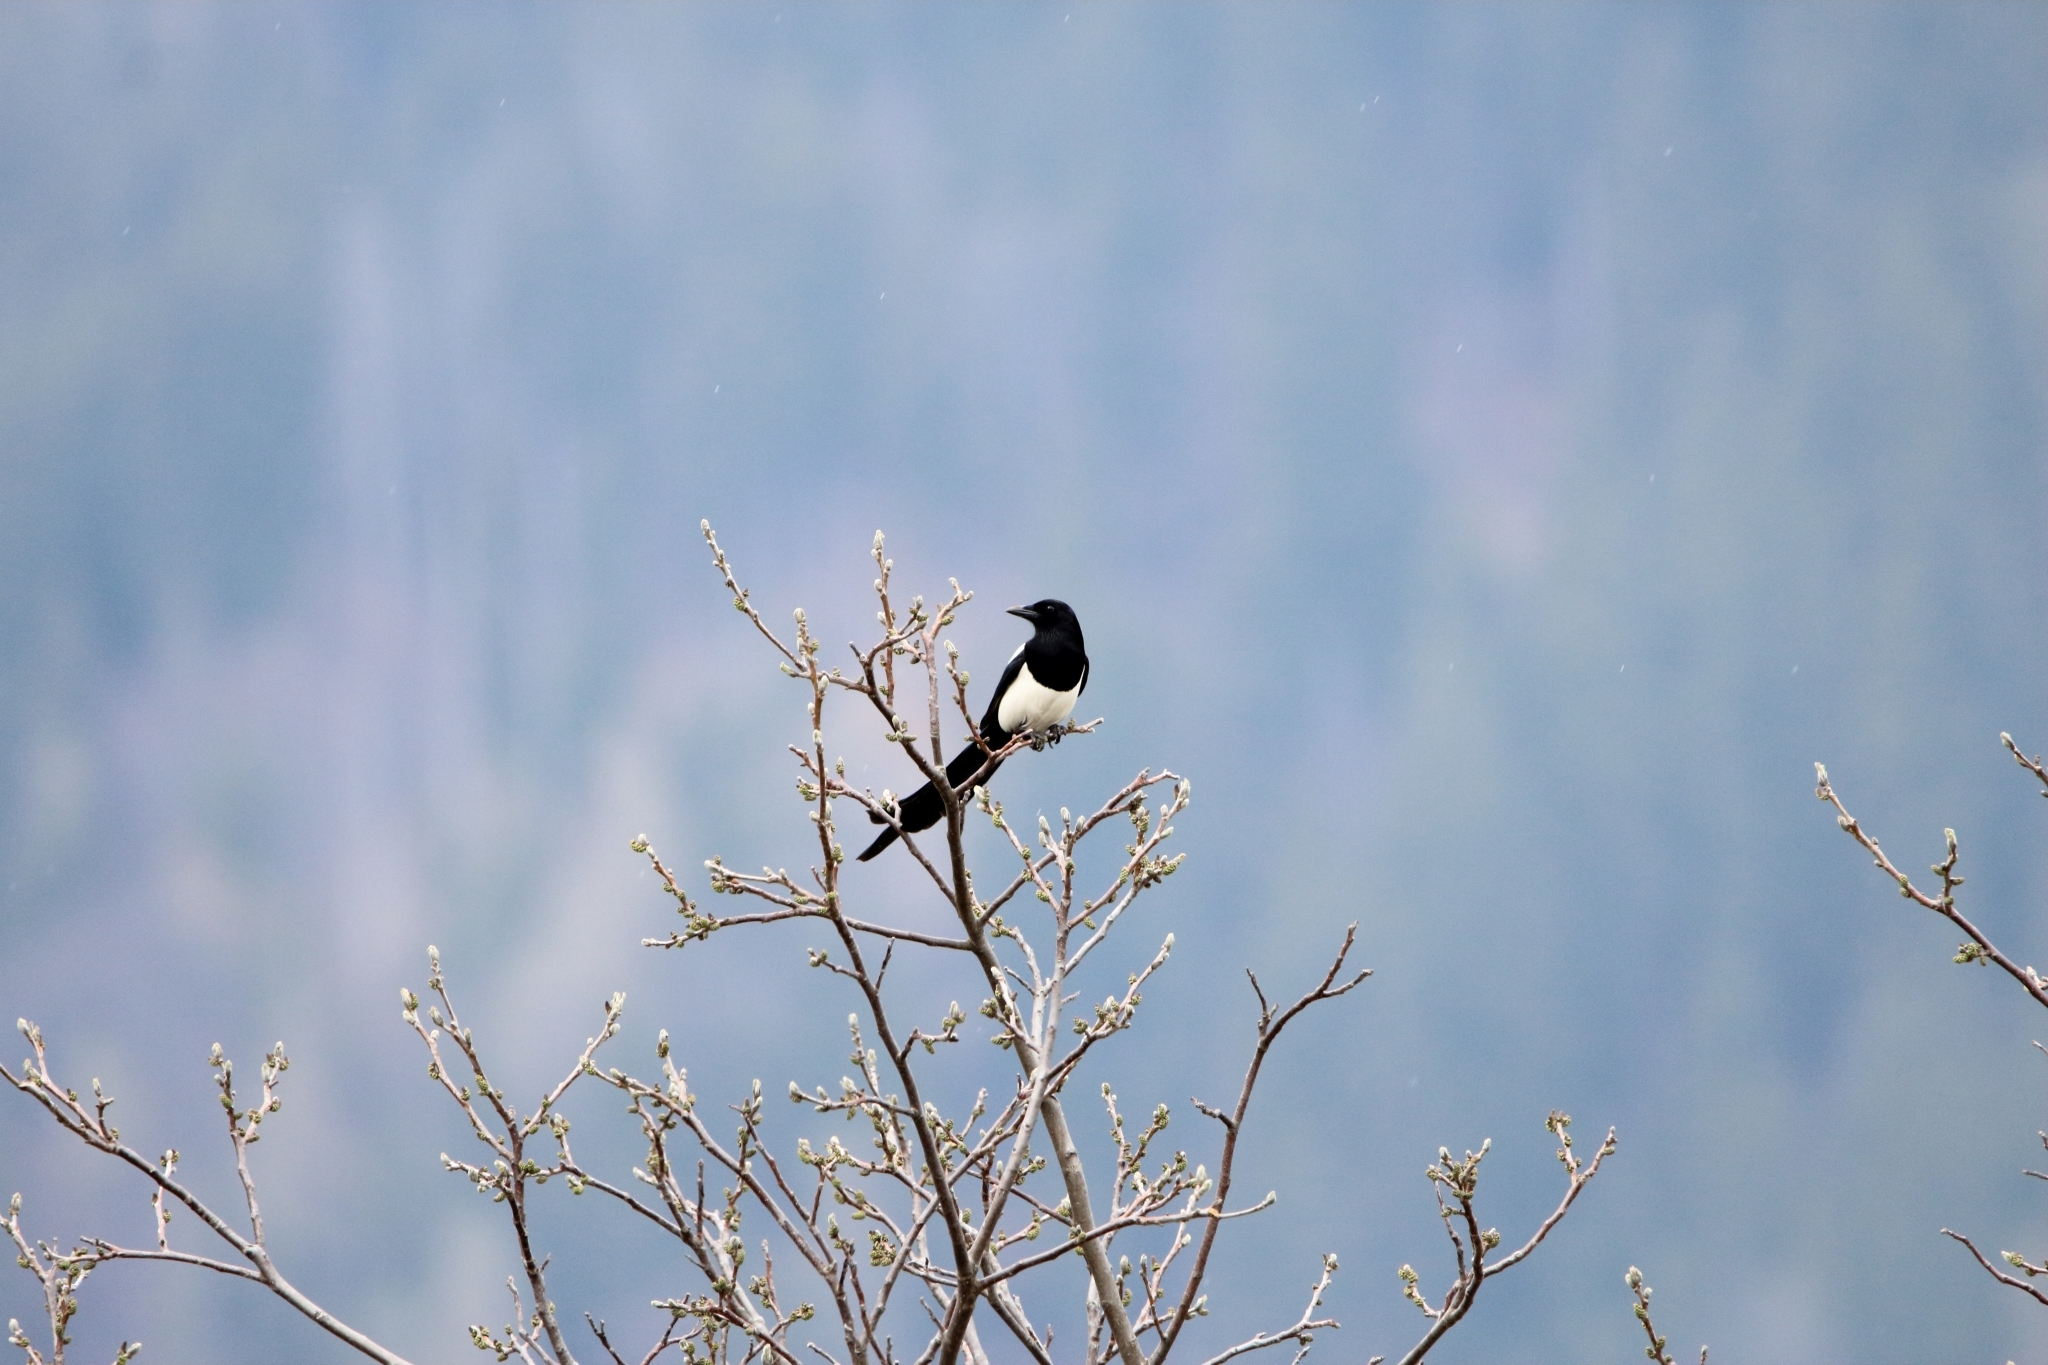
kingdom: Animalia
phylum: Chordata
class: Aves
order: Passeriformes
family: Corvidae
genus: Pica
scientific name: Pica pica
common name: Eurasian magpie
